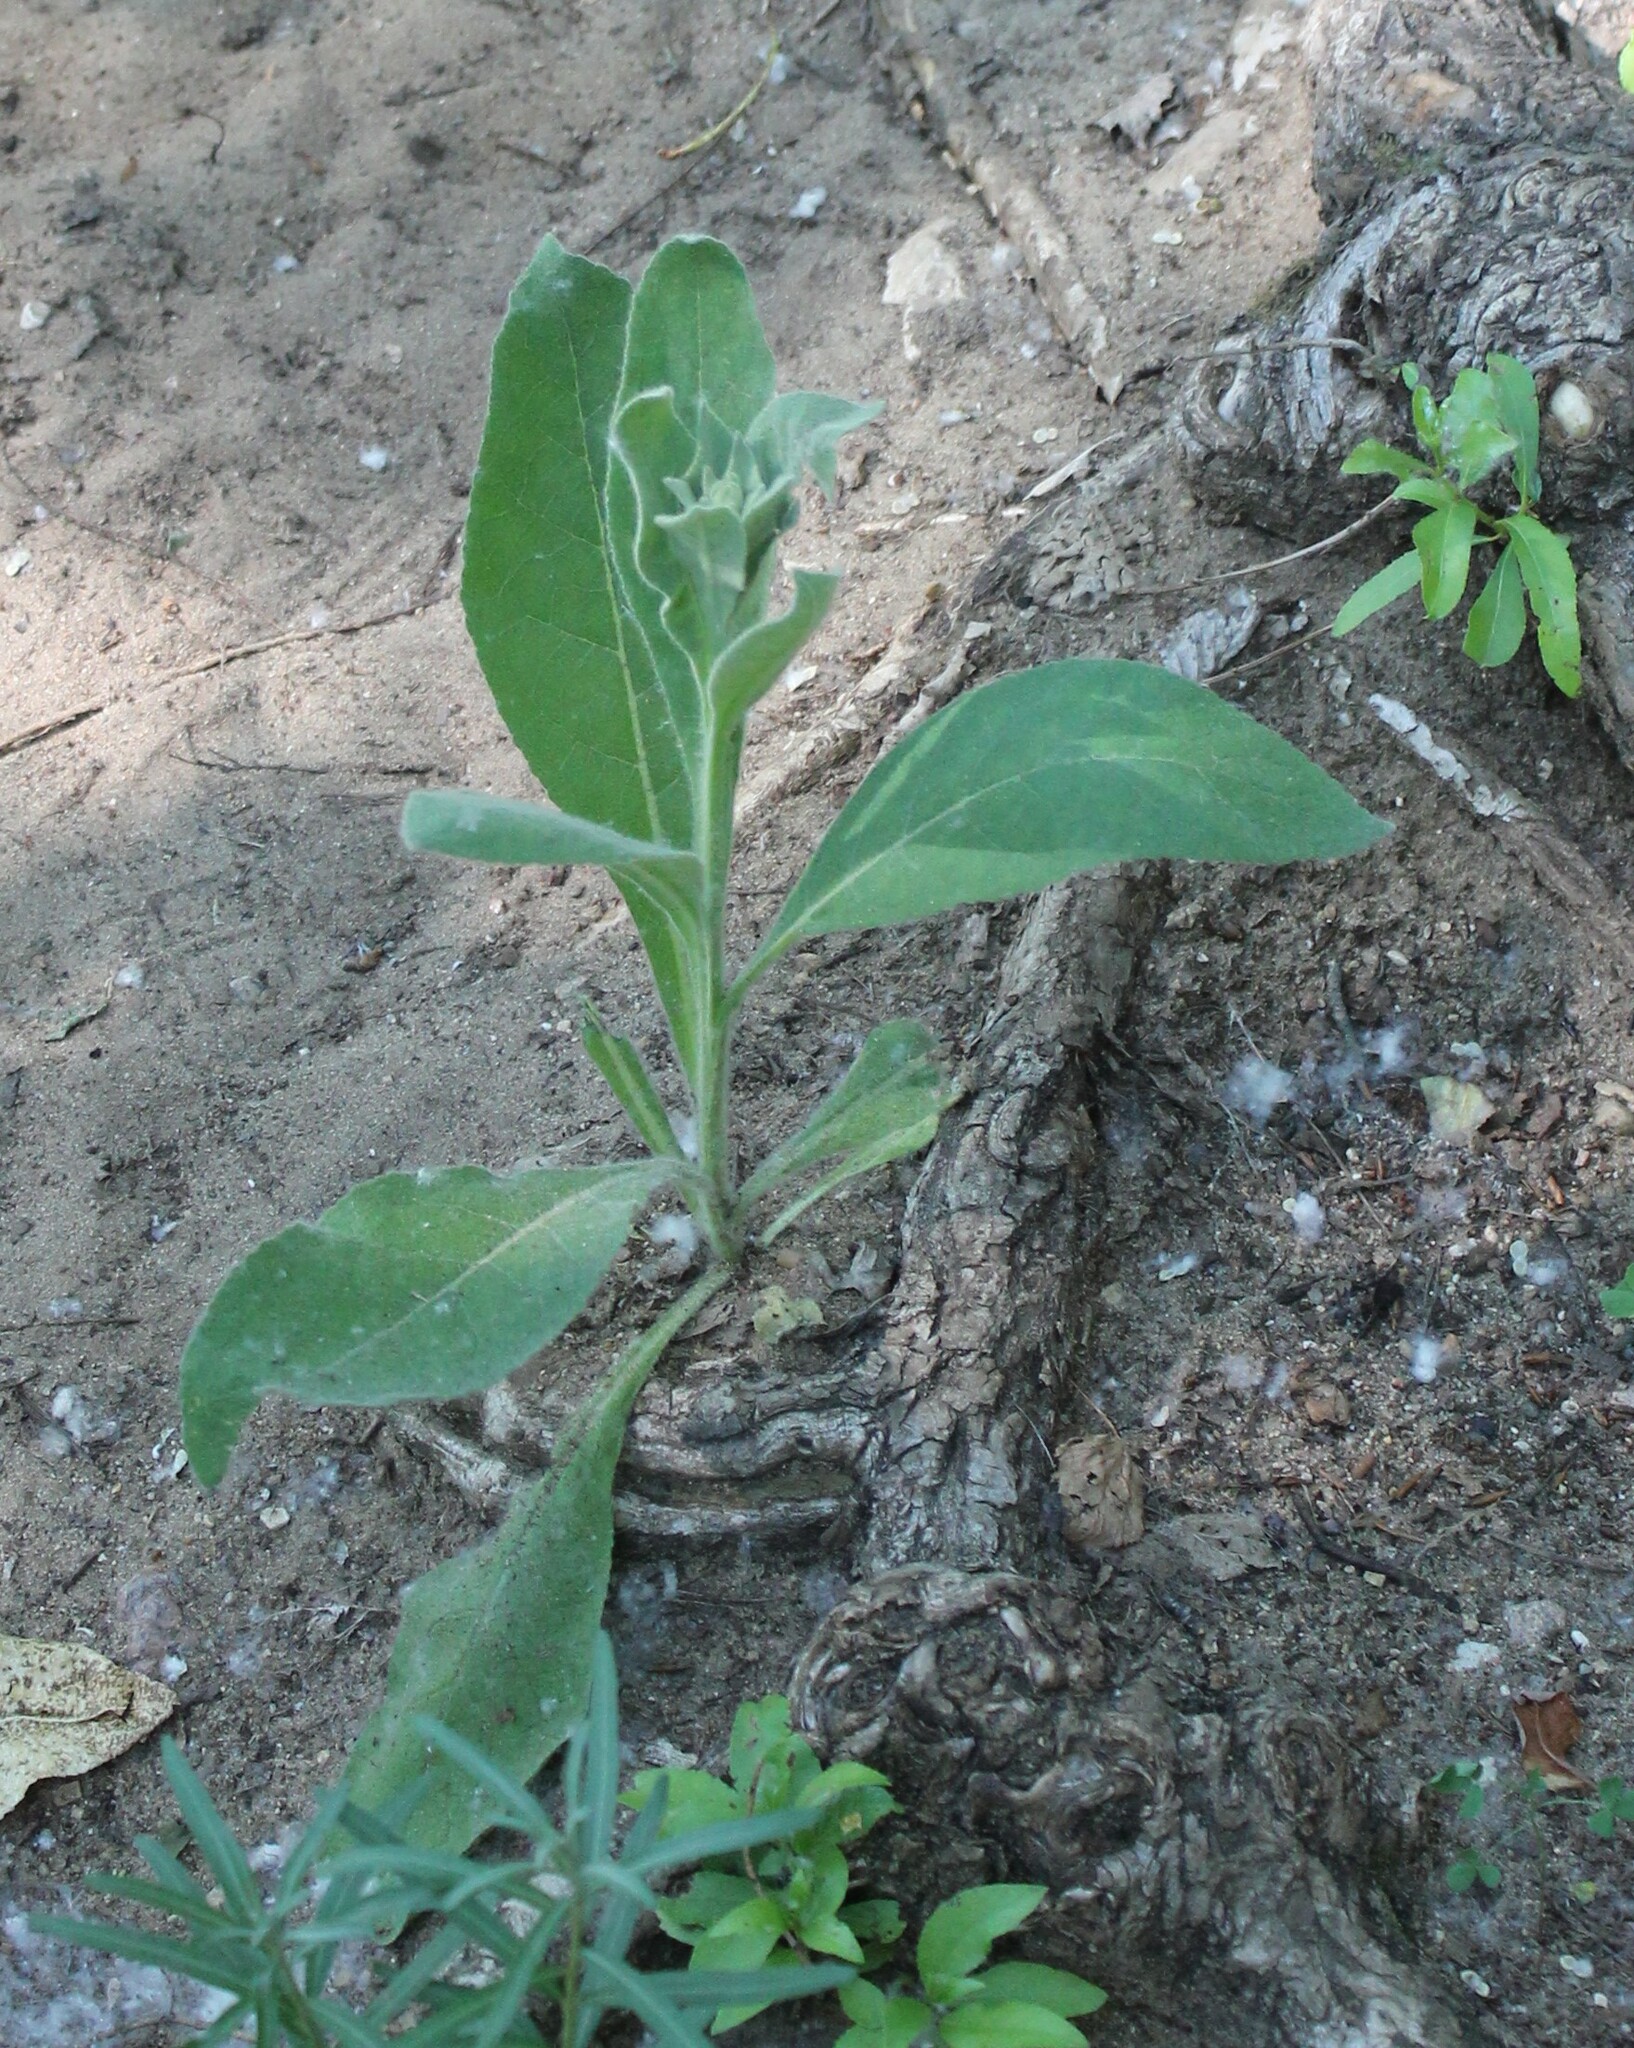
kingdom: Plantae
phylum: Tracheophyta
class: Magnoliopsida
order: Lamiales
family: Scrophulariaceae
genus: Verbascum
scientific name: Verbascum thapsus
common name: Common mullein
